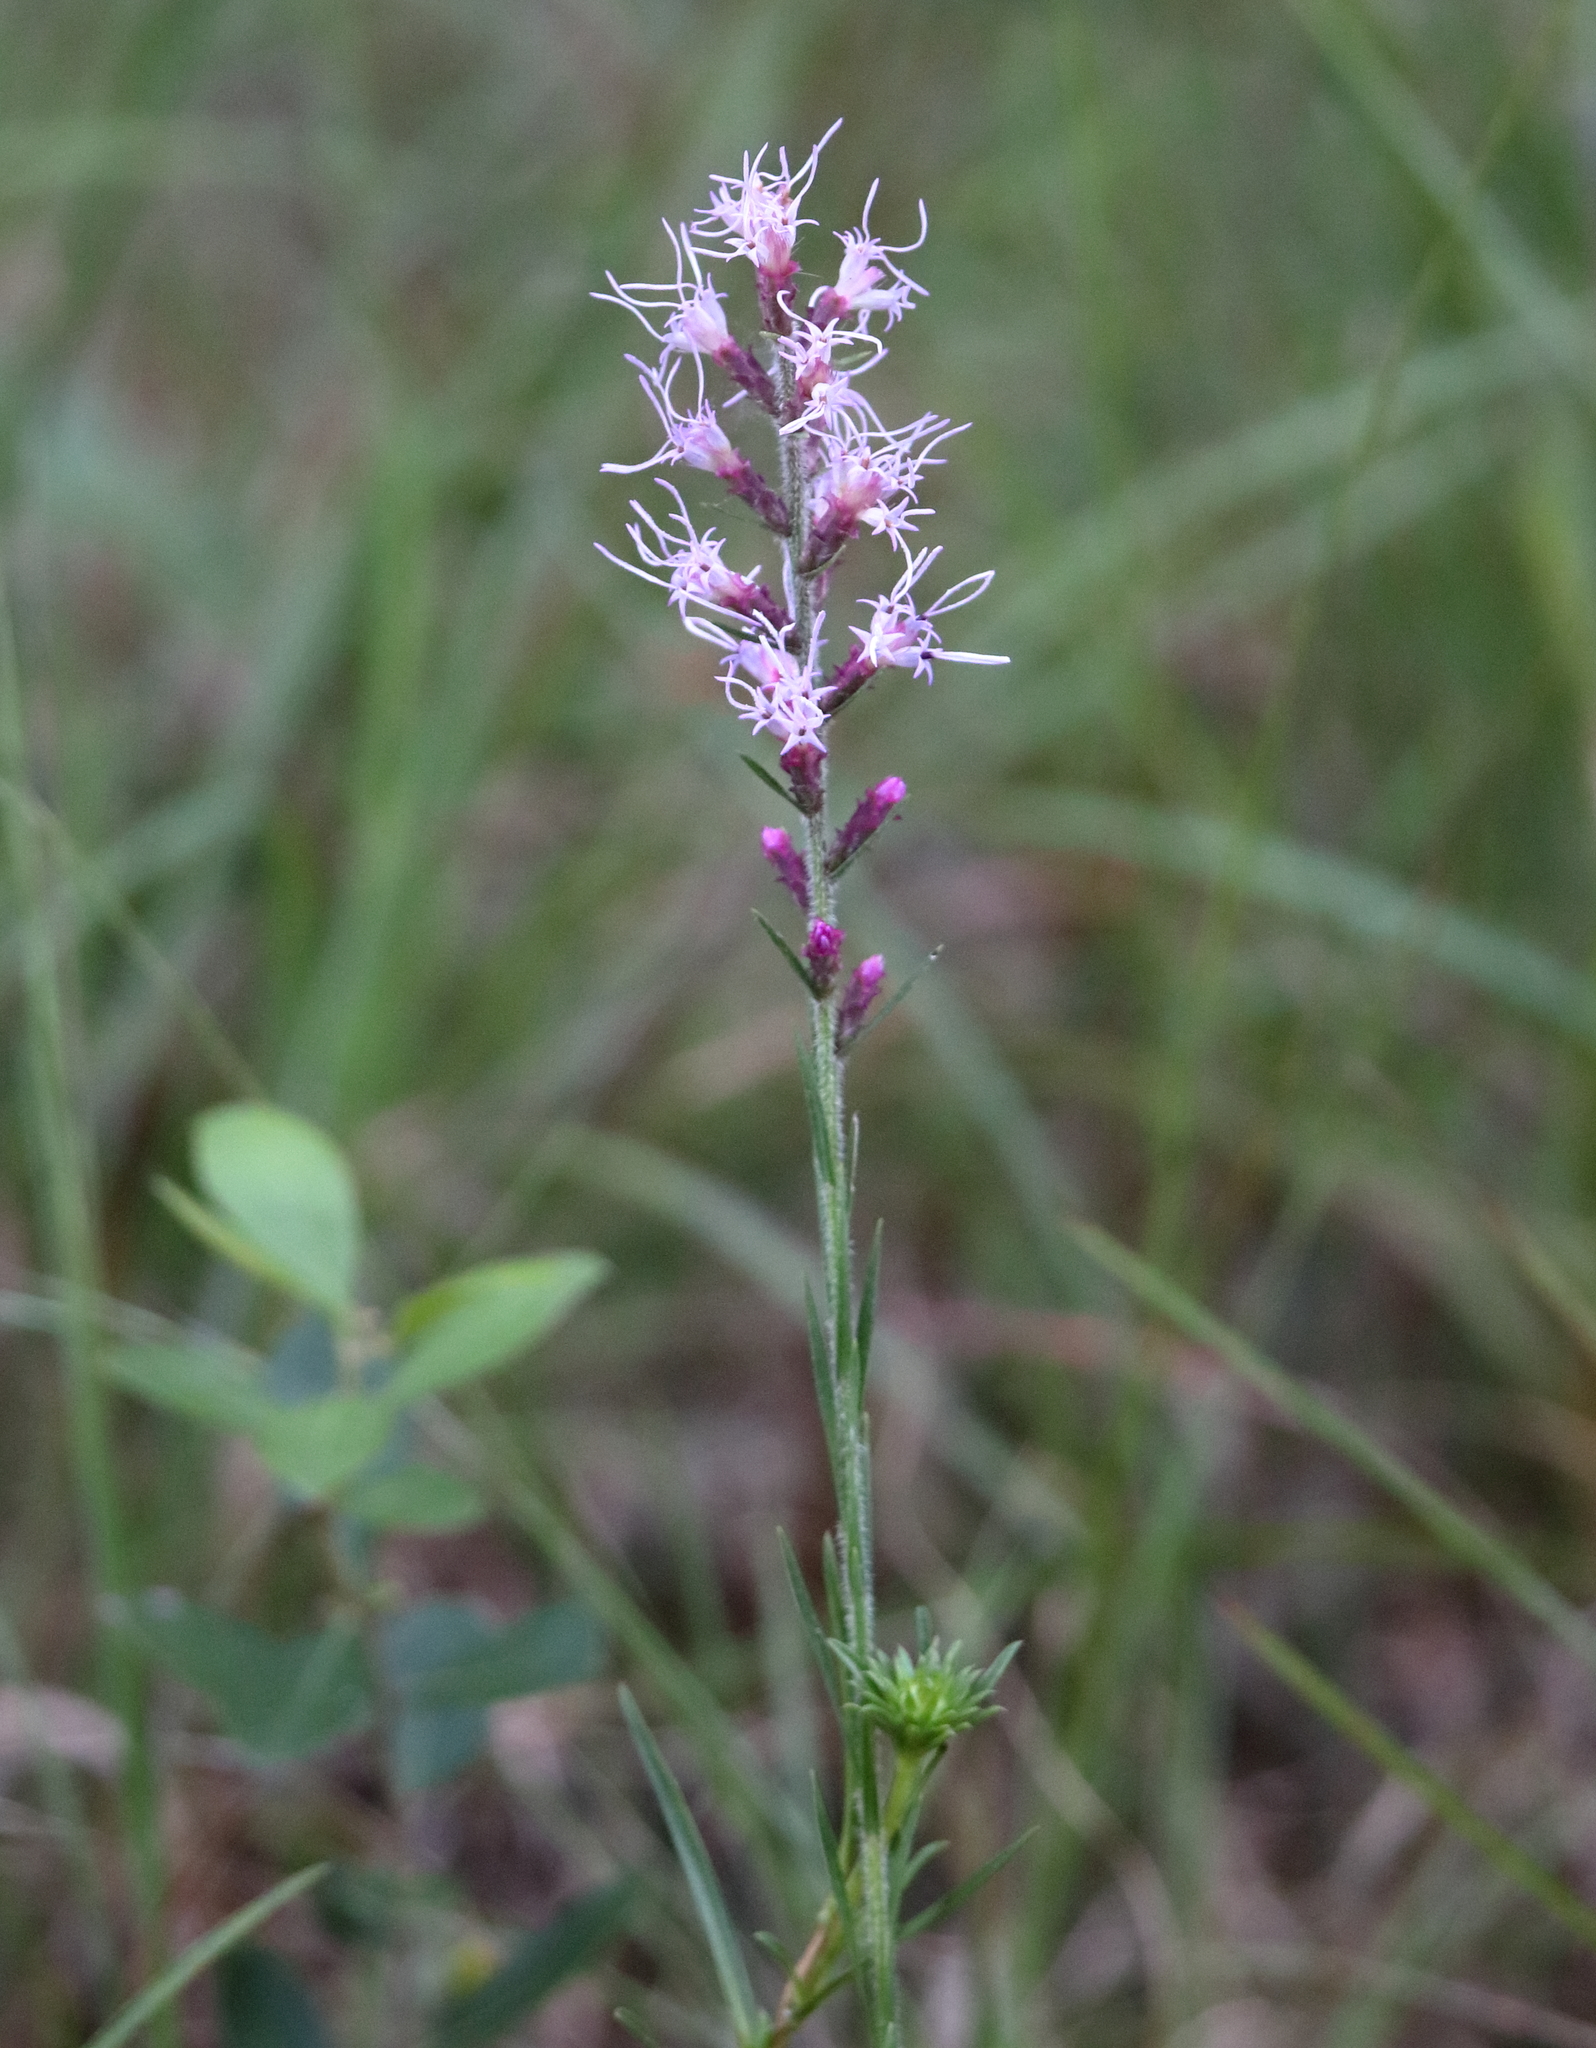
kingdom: Plantae
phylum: Tracheophyta
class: Magnoliopsida
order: Asterales
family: Asteraceae
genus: Liatris
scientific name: Liatris spicata
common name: Florist gayfeather
